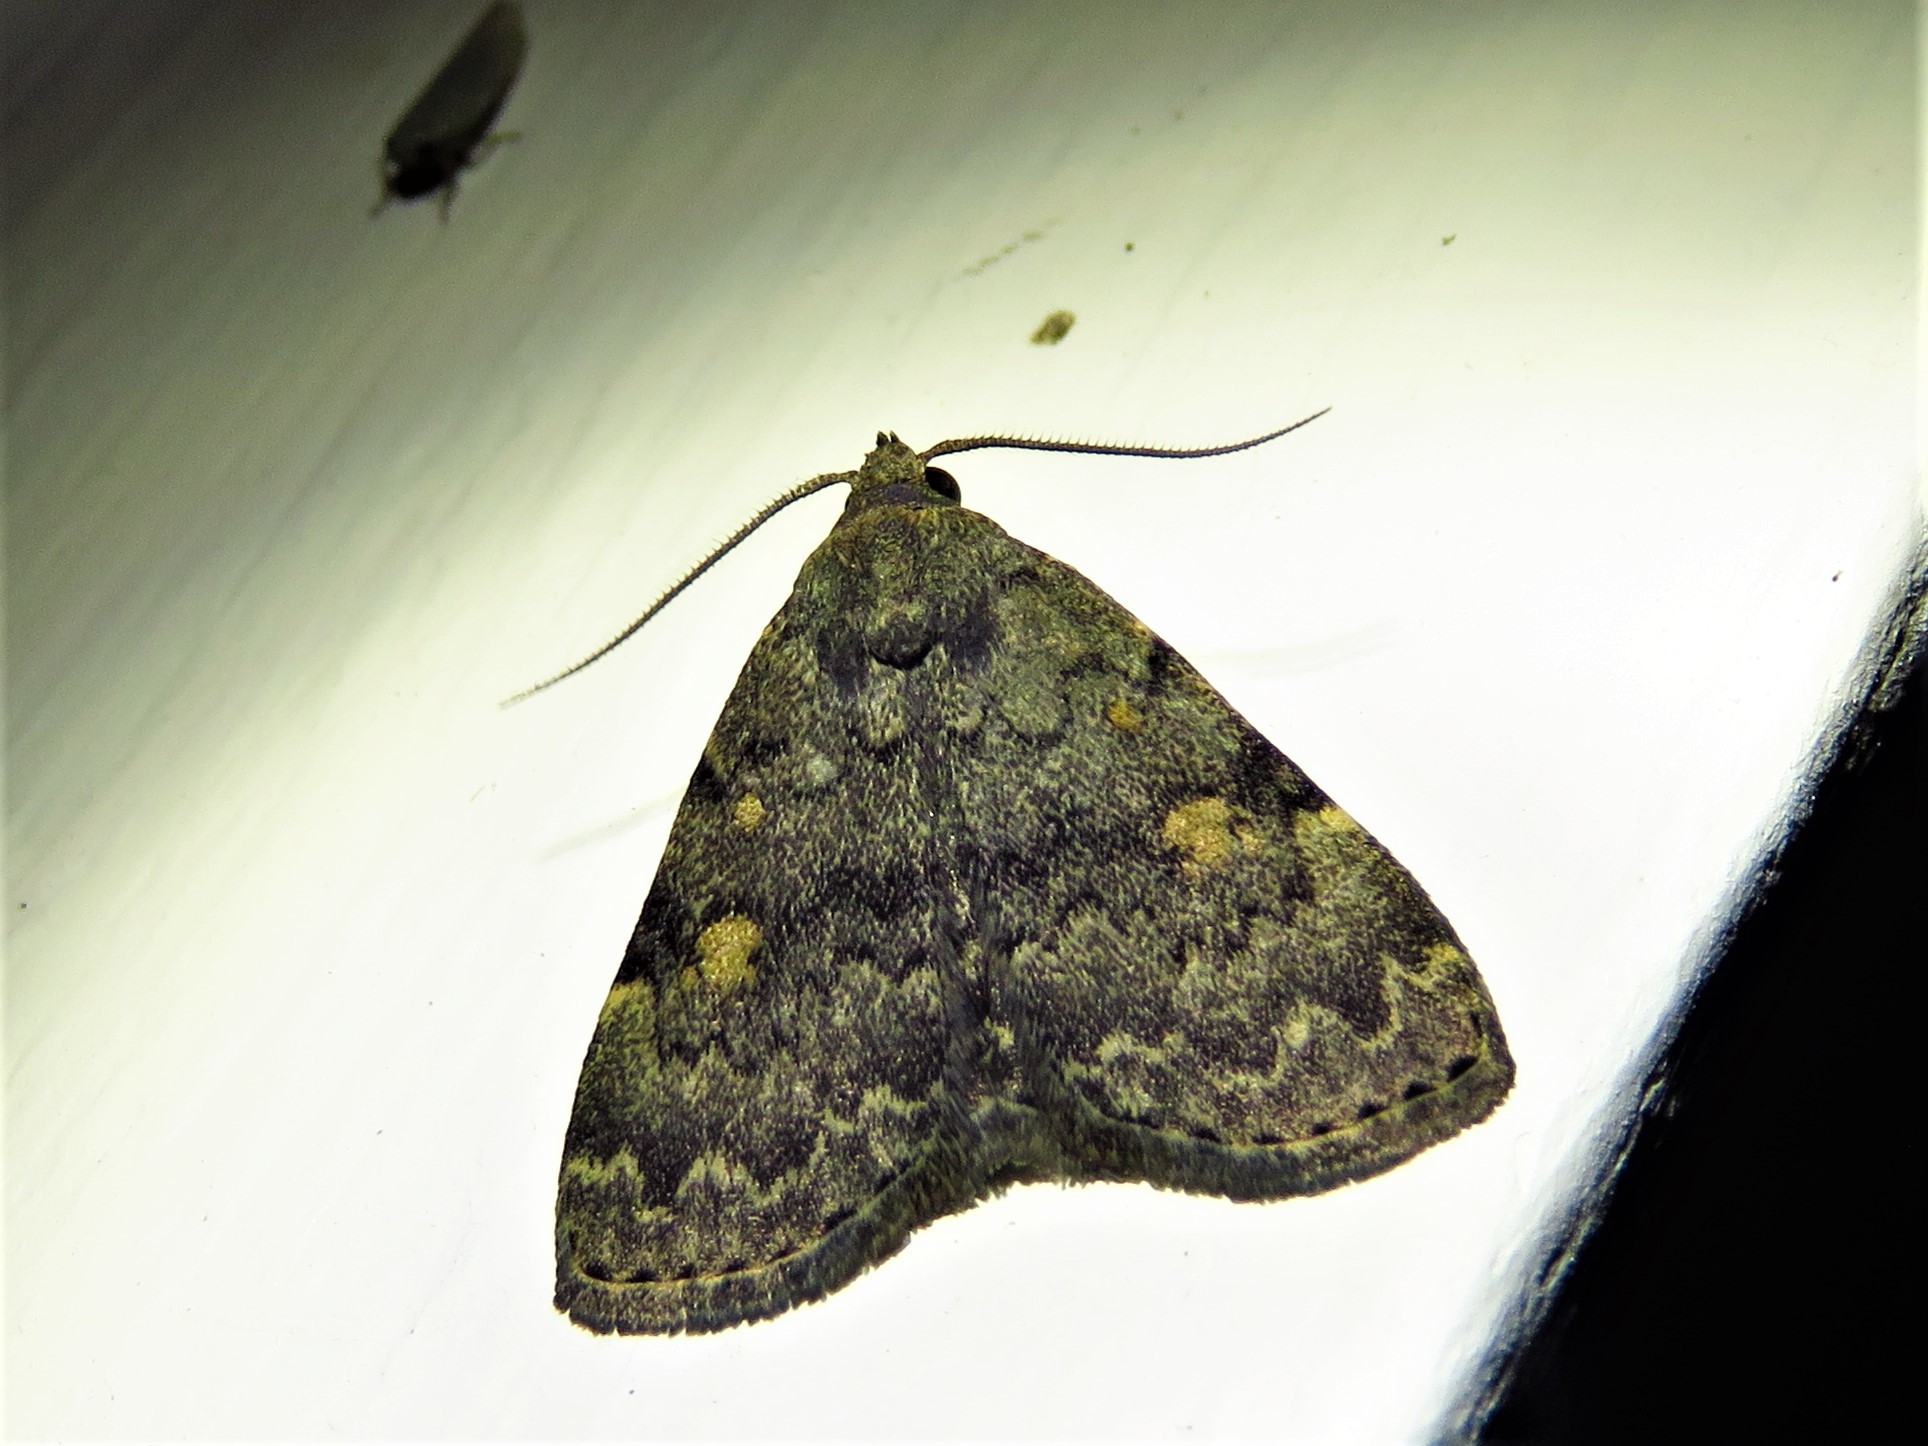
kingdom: Animalia
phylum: Arthropoda
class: Insecta
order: Lepidoptera
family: Erebidae
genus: Idia
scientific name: Idia aemula
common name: Common idia moth
